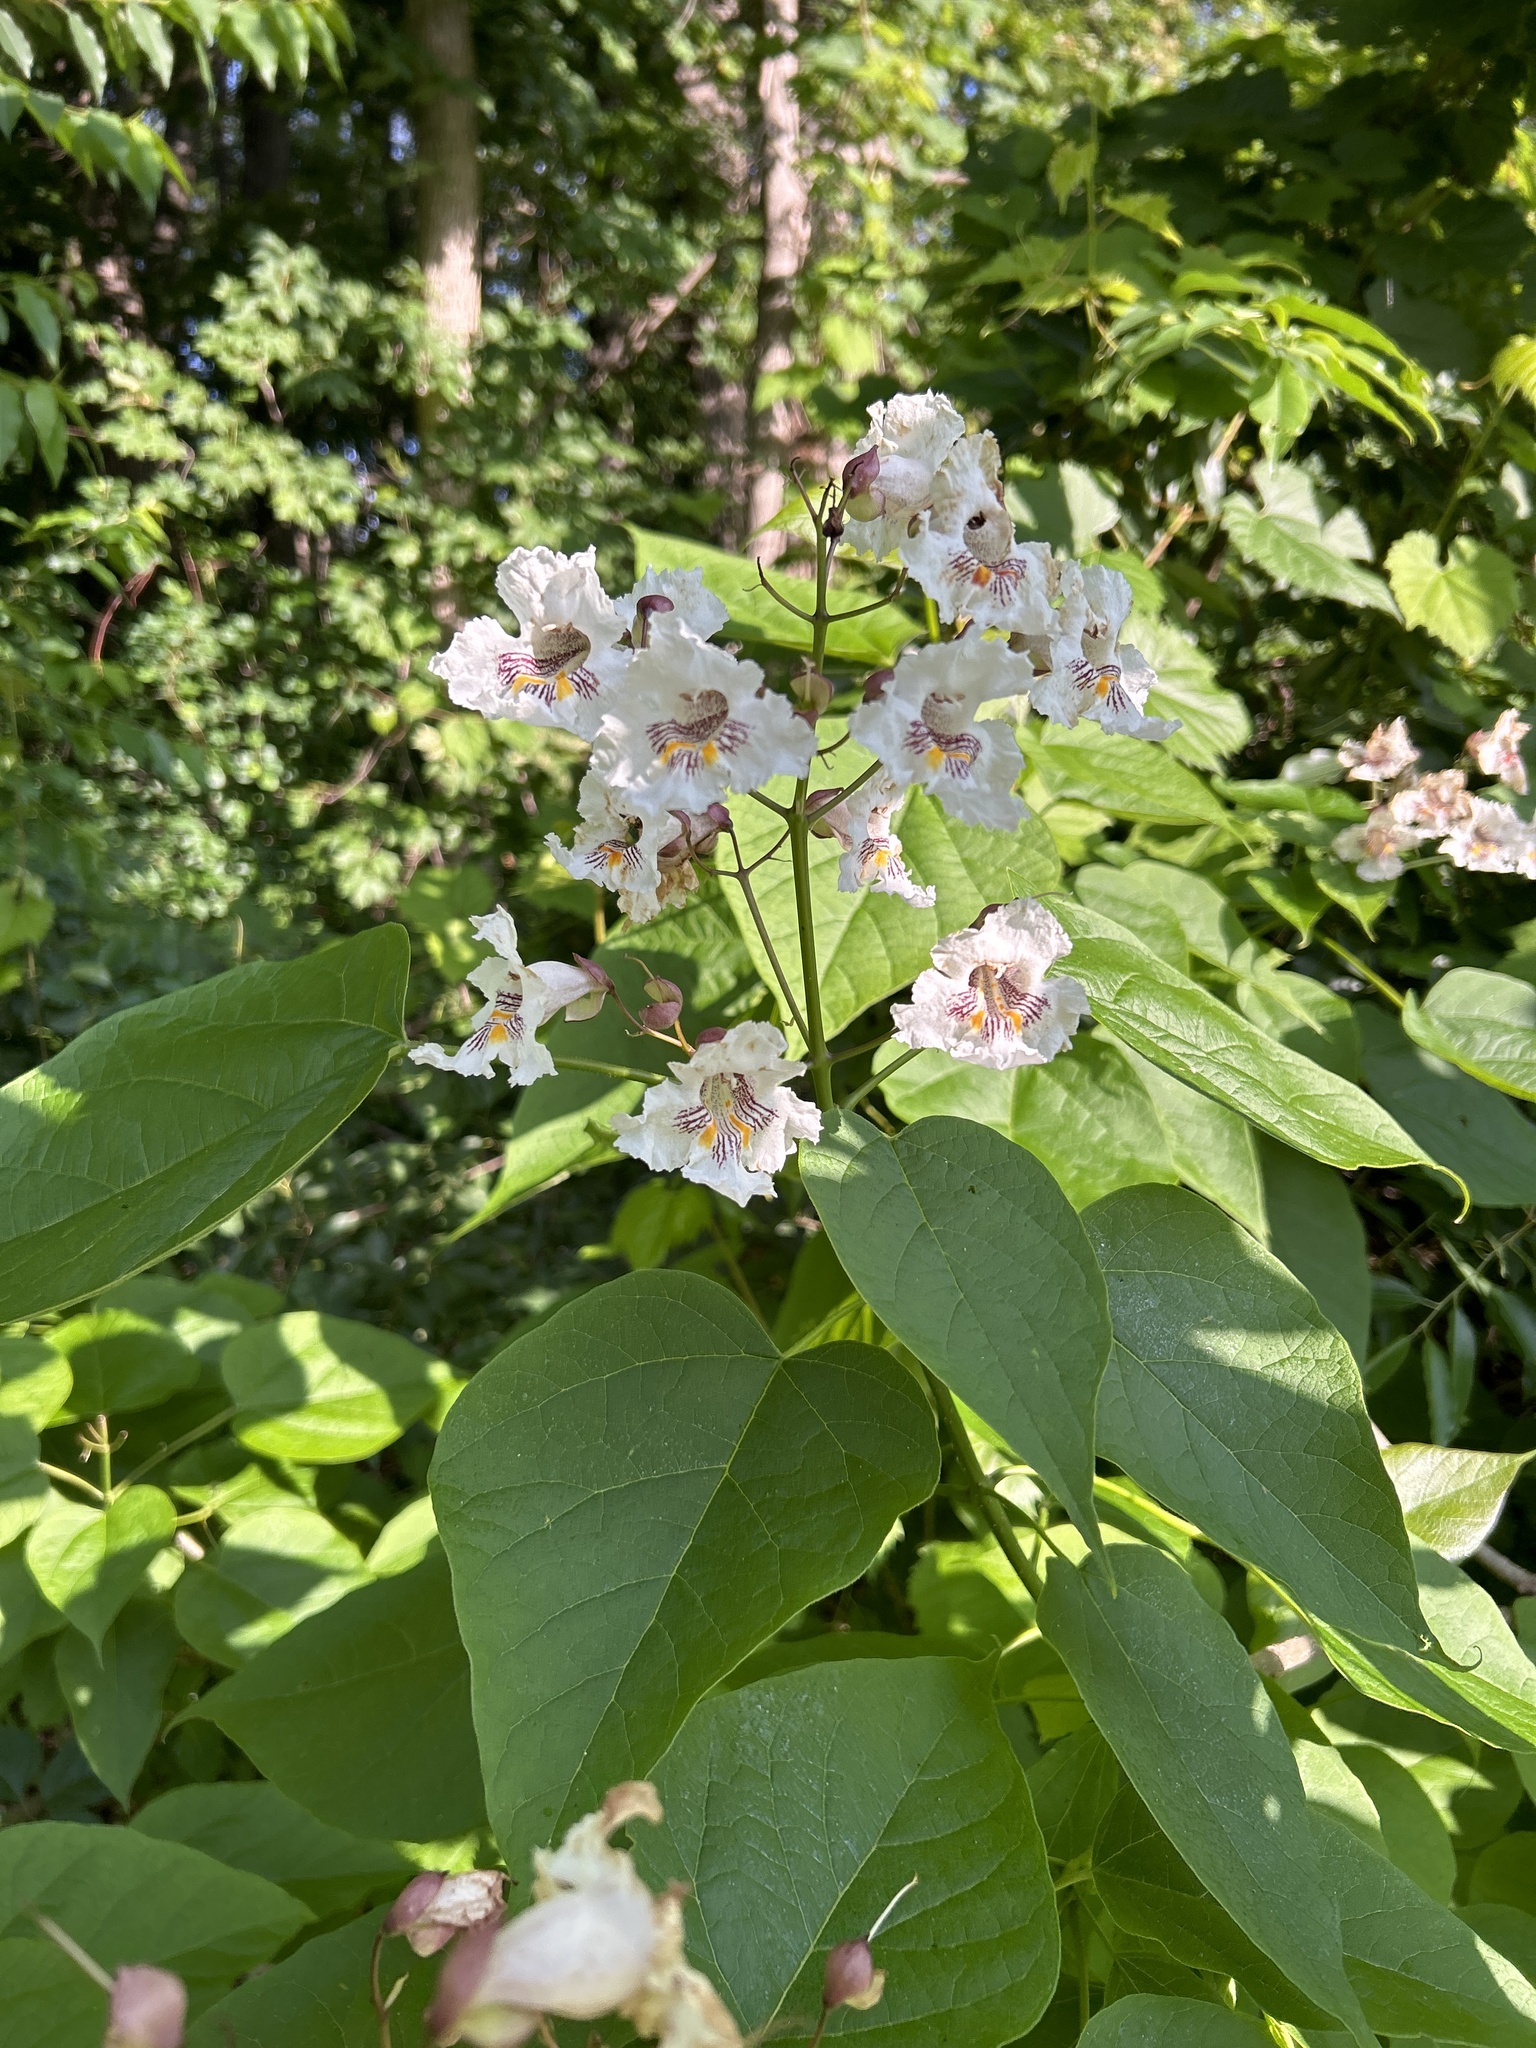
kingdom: Plantae
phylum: Tracheophyta
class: Magnoliopsida
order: Lamiales
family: Bignoniaceae
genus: Catalpa
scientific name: Catalpa speciosa
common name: Northern catalpa
